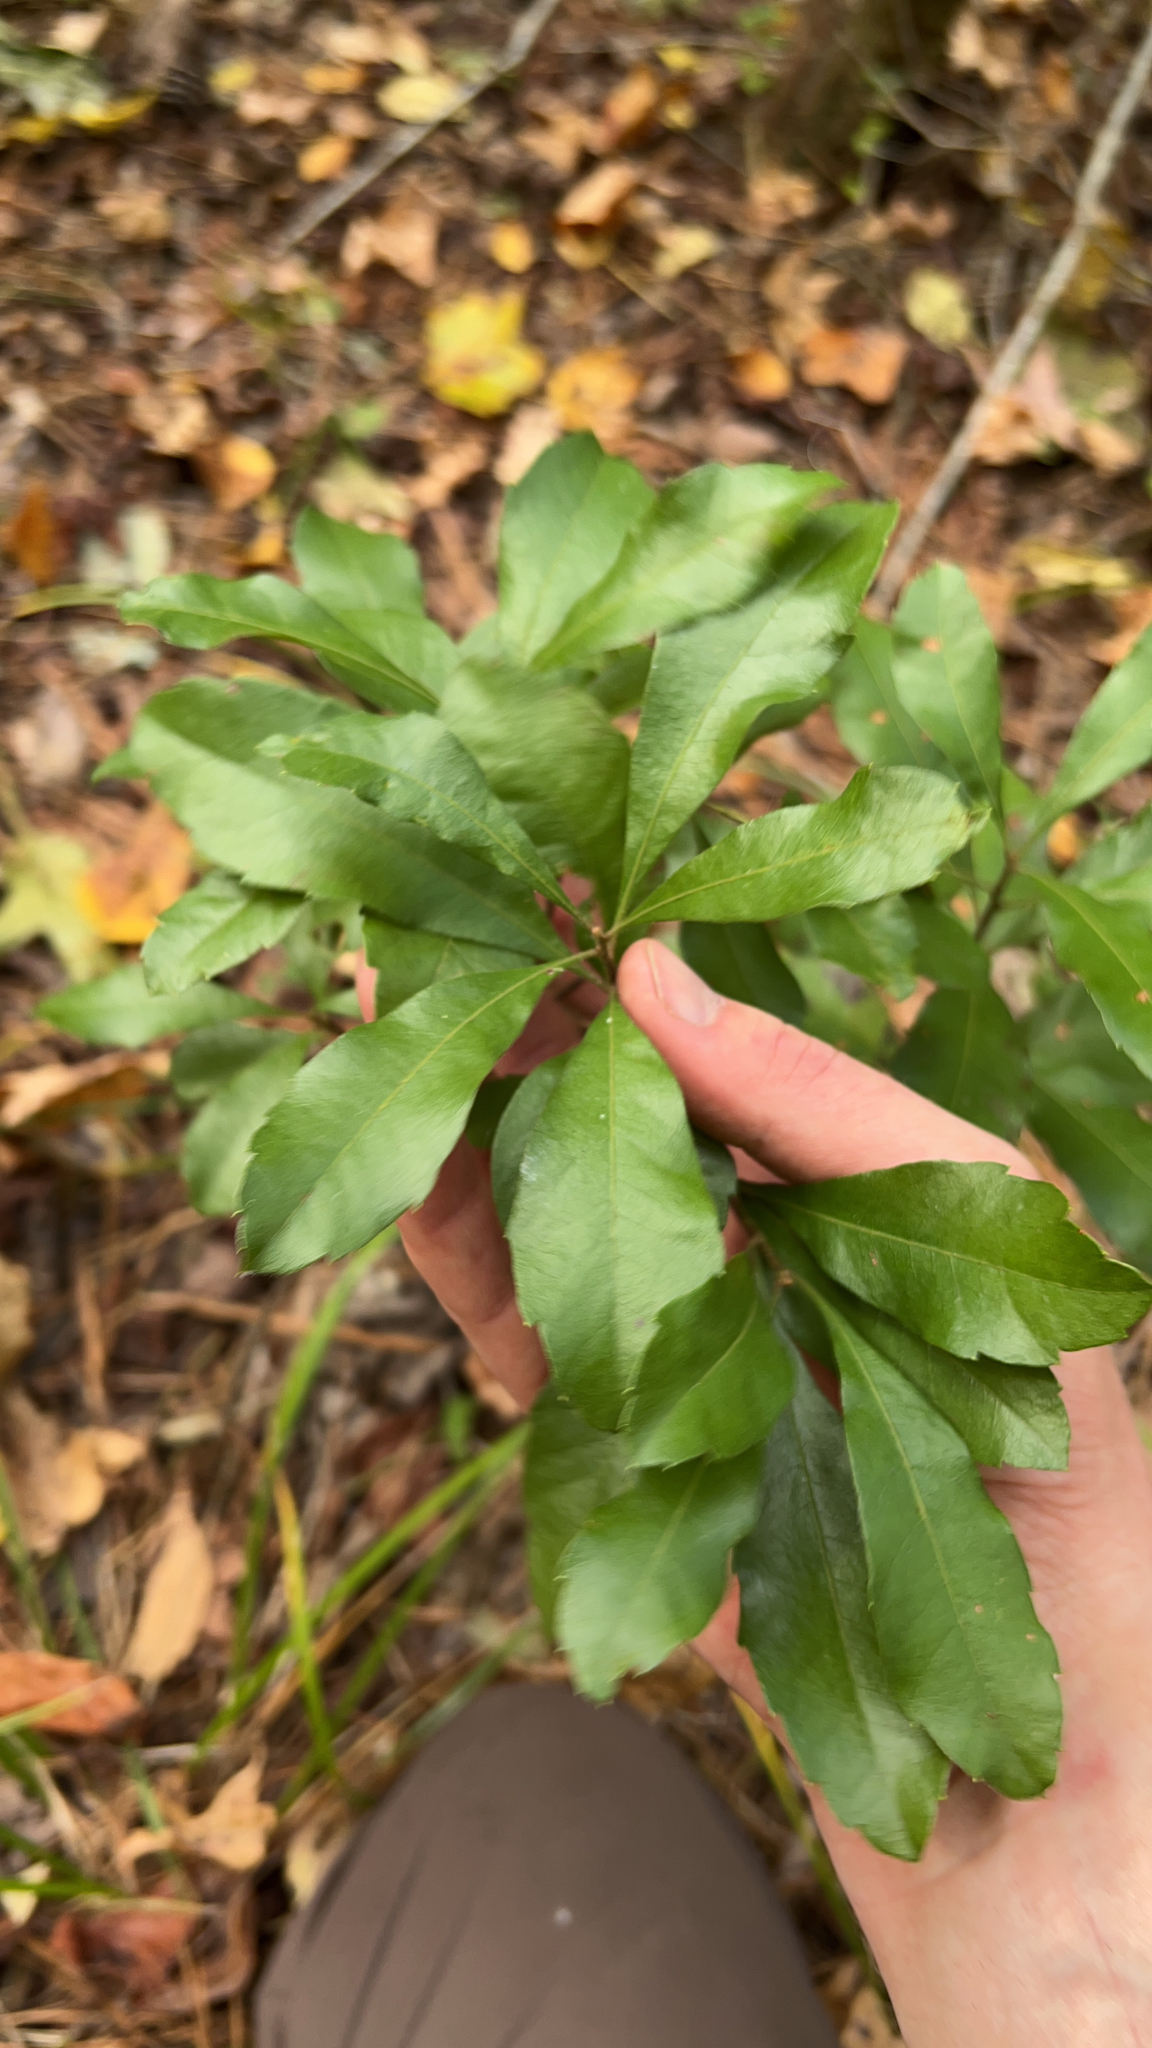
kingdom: Plantae
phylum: Tracheophyta
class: Magnoliopsida
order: Fagales
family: Myricaceae
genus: Morella
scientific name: Morella cerifera
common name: Wax myrtle
